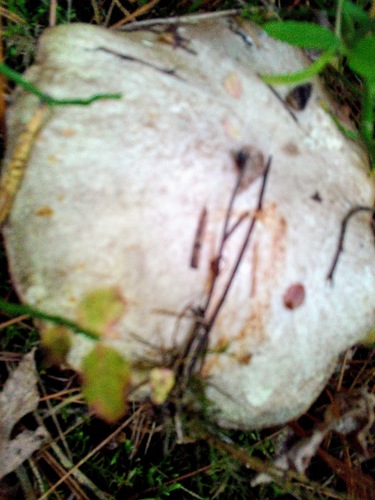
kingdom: Fungi
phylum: Basidiomycota
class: Agaricomycetes
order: Boletales
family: Suillaceae
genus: Suillus
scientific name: Suillus placidus
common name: Slippery white bolete
